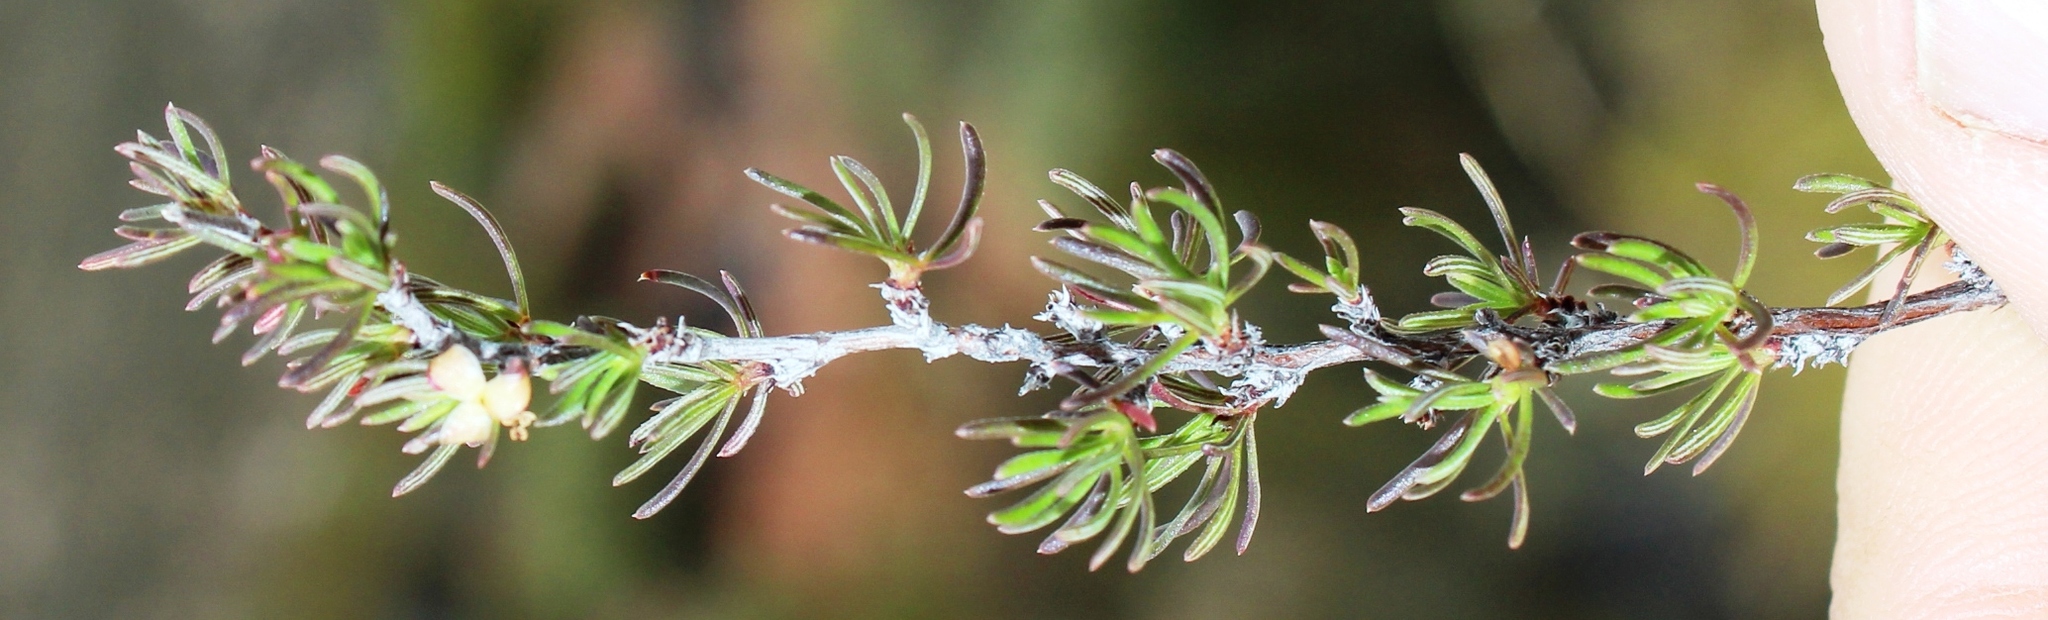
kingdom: Plantae
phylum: Tracheophyta
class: Magnoliopsida
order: Rosales
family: Rosaceae
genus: Cliffortia
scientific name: Cliffortia castanea
